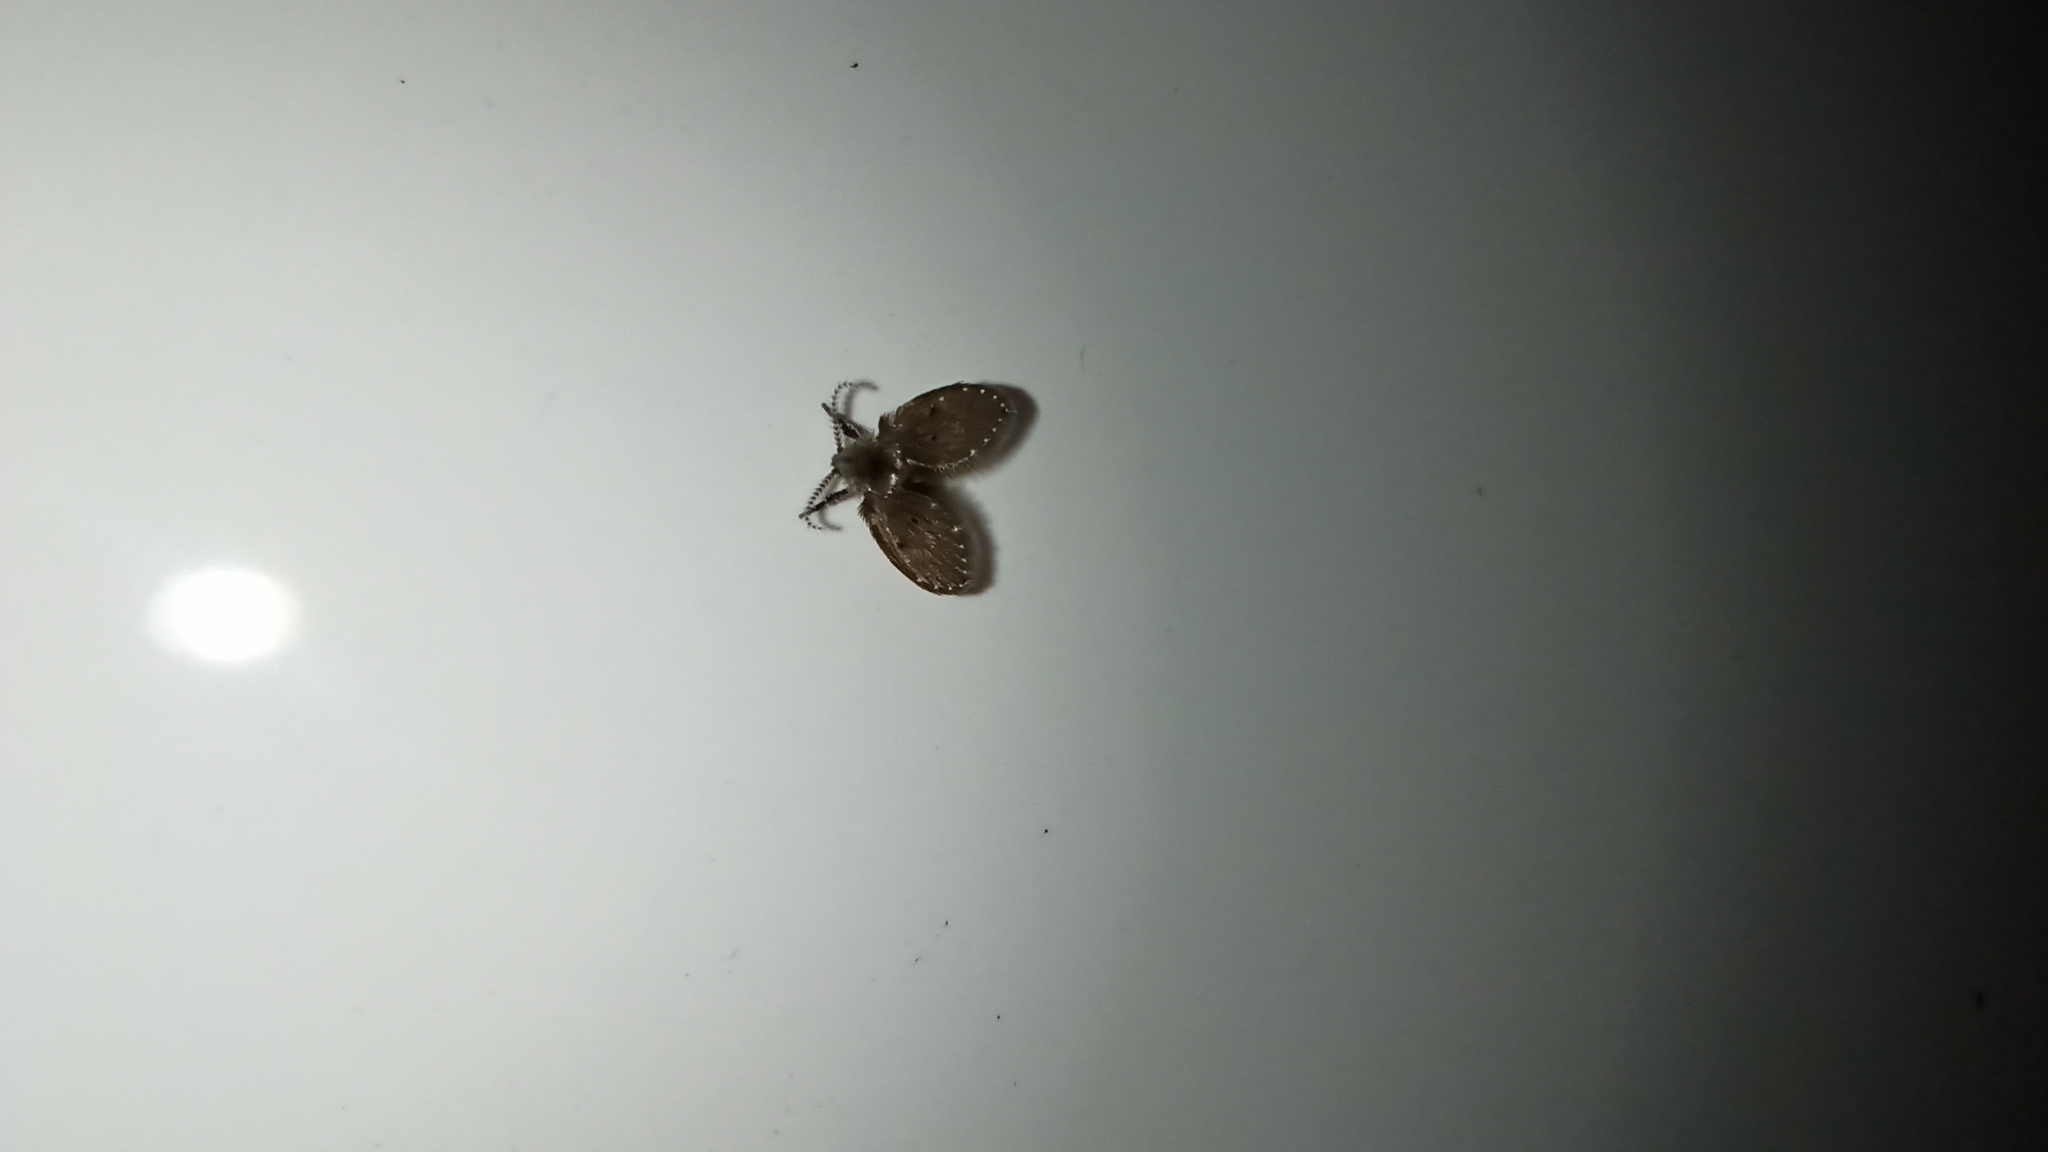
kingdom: Animalia
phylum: Arthropoda
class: Insecta
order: Diptera
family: Psychodidae
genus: Clogmia
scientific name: Clogmia albipunctatus
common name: White-spotted moth fly
